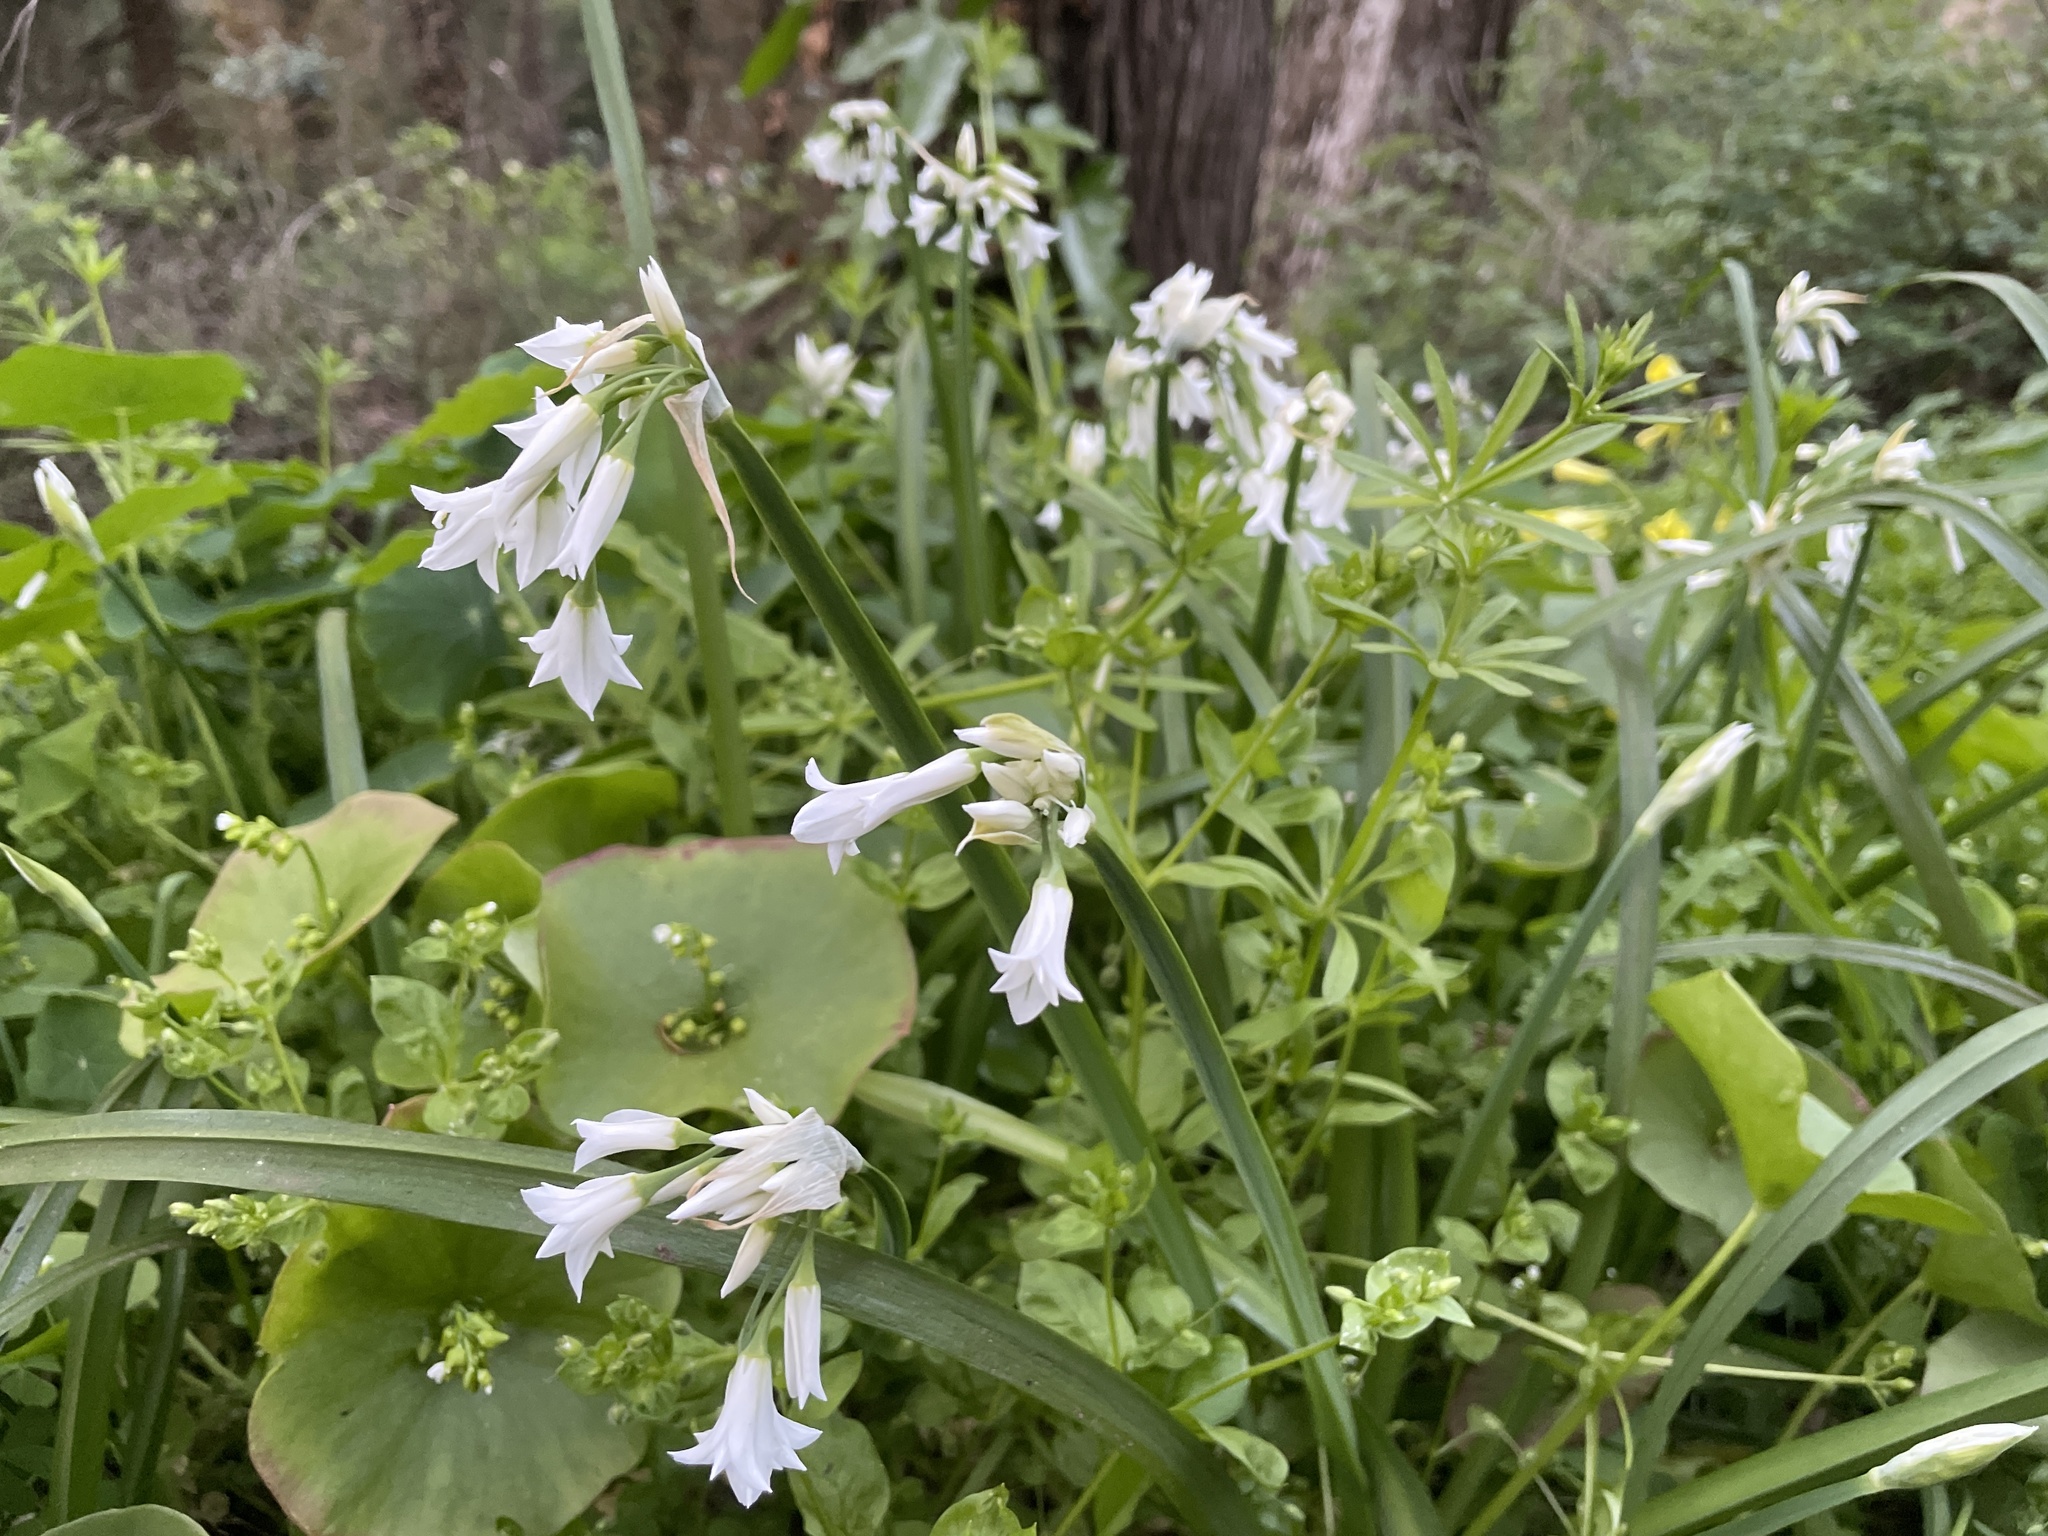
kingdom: Plantae
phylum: Tracheophyta
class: Liliopsida
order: Asparagales
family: Amaryllidaceae
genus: Allium
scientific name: Allium triquetrum
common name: Three-cornered garlic
